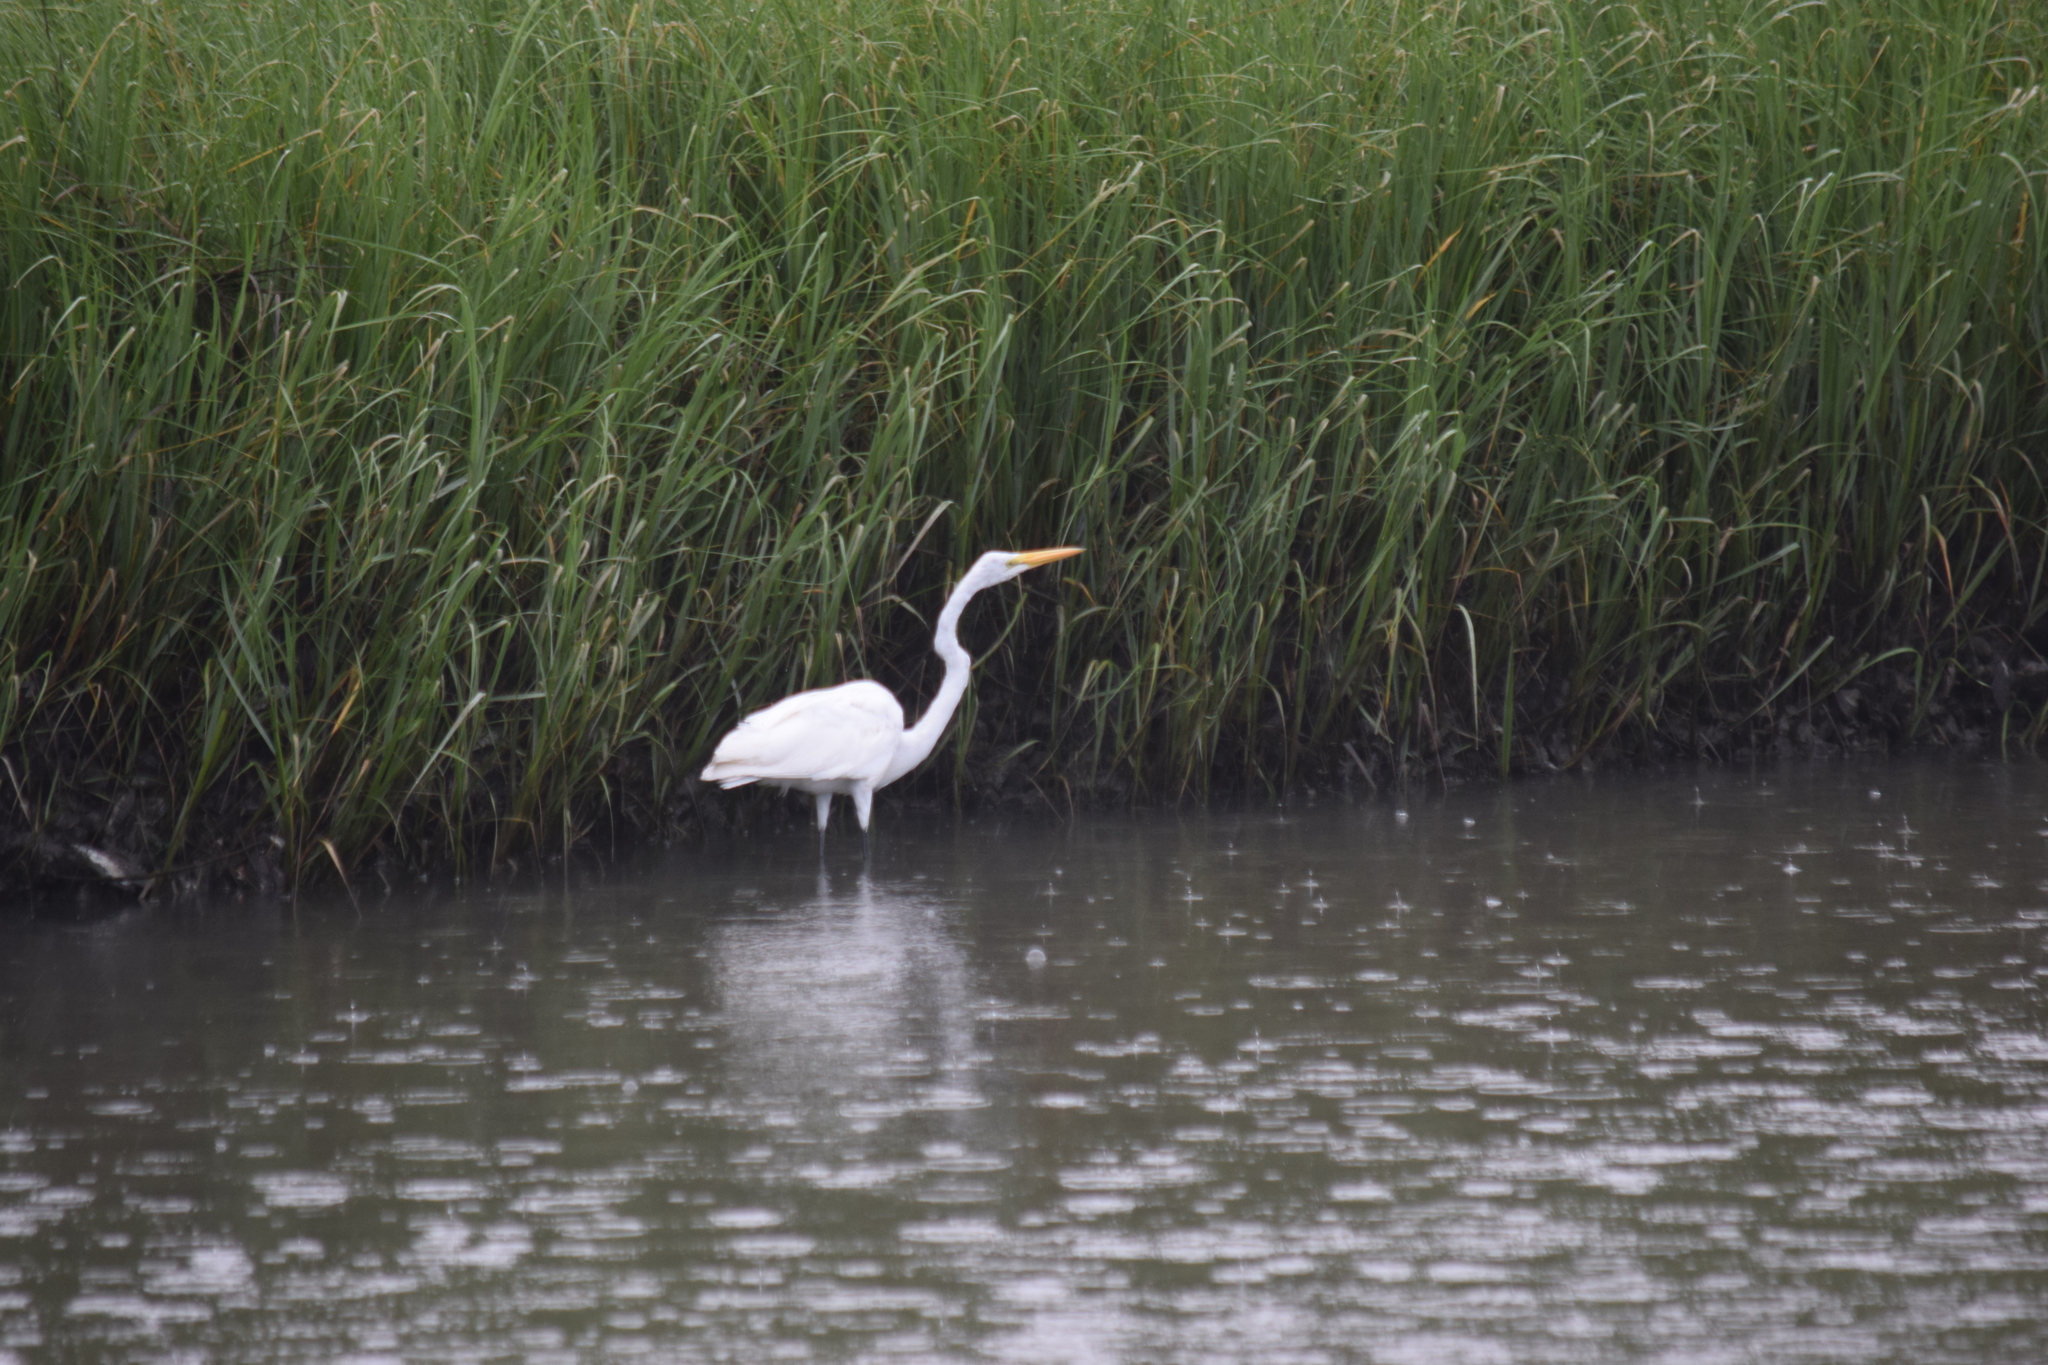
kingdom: Animalia
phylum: Chordata
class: Aves
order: Pelecaniformes
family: Ardeidae
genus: Ardea
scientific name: Ardea alba
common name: Great egret
